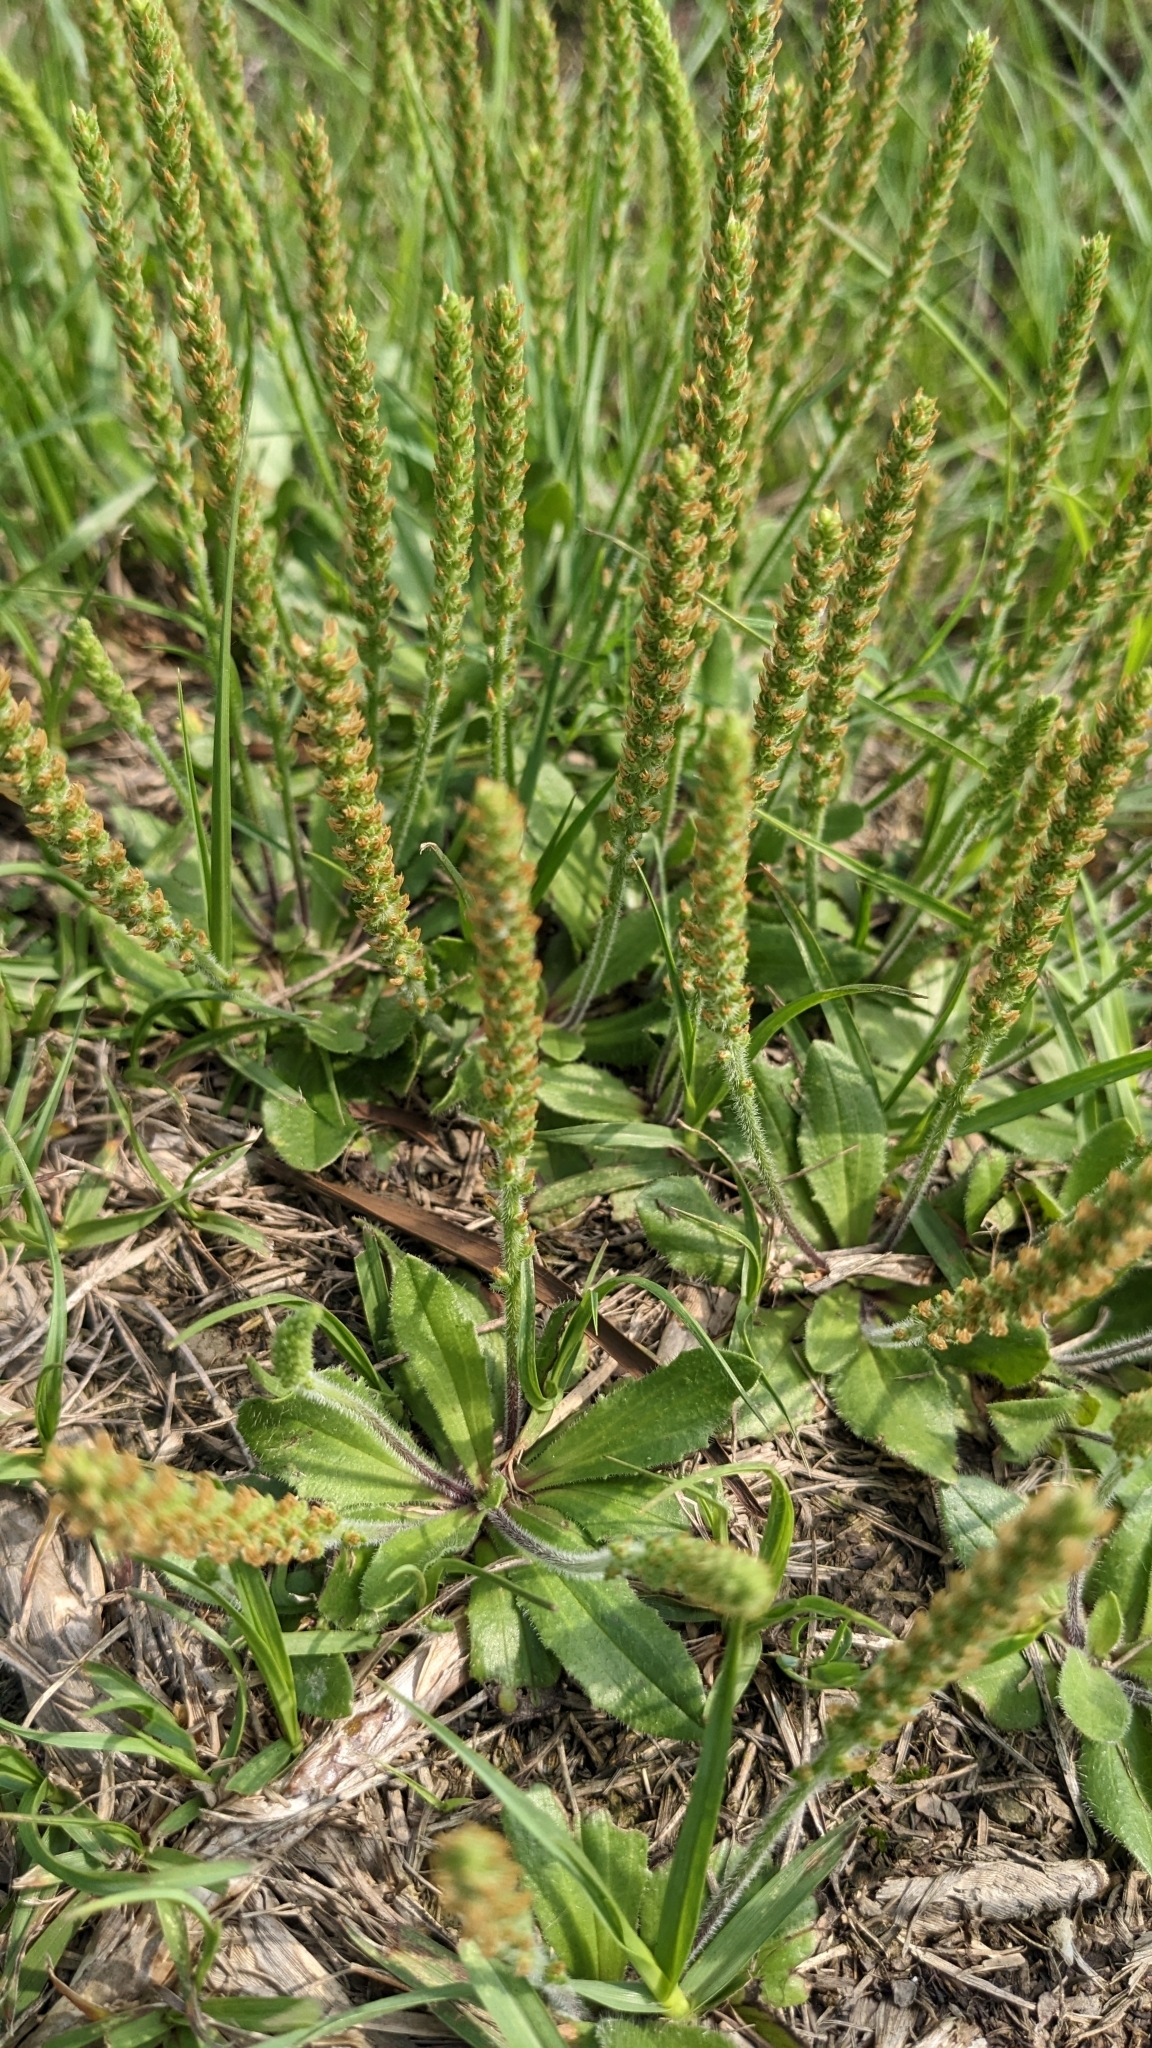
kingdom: Plantae
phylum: Tracheophyta
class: Magnoliopsida
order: Lamiales
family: Plantaginaceae
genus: Plantago
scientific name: Plantago virginica
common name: Hoary plantain
